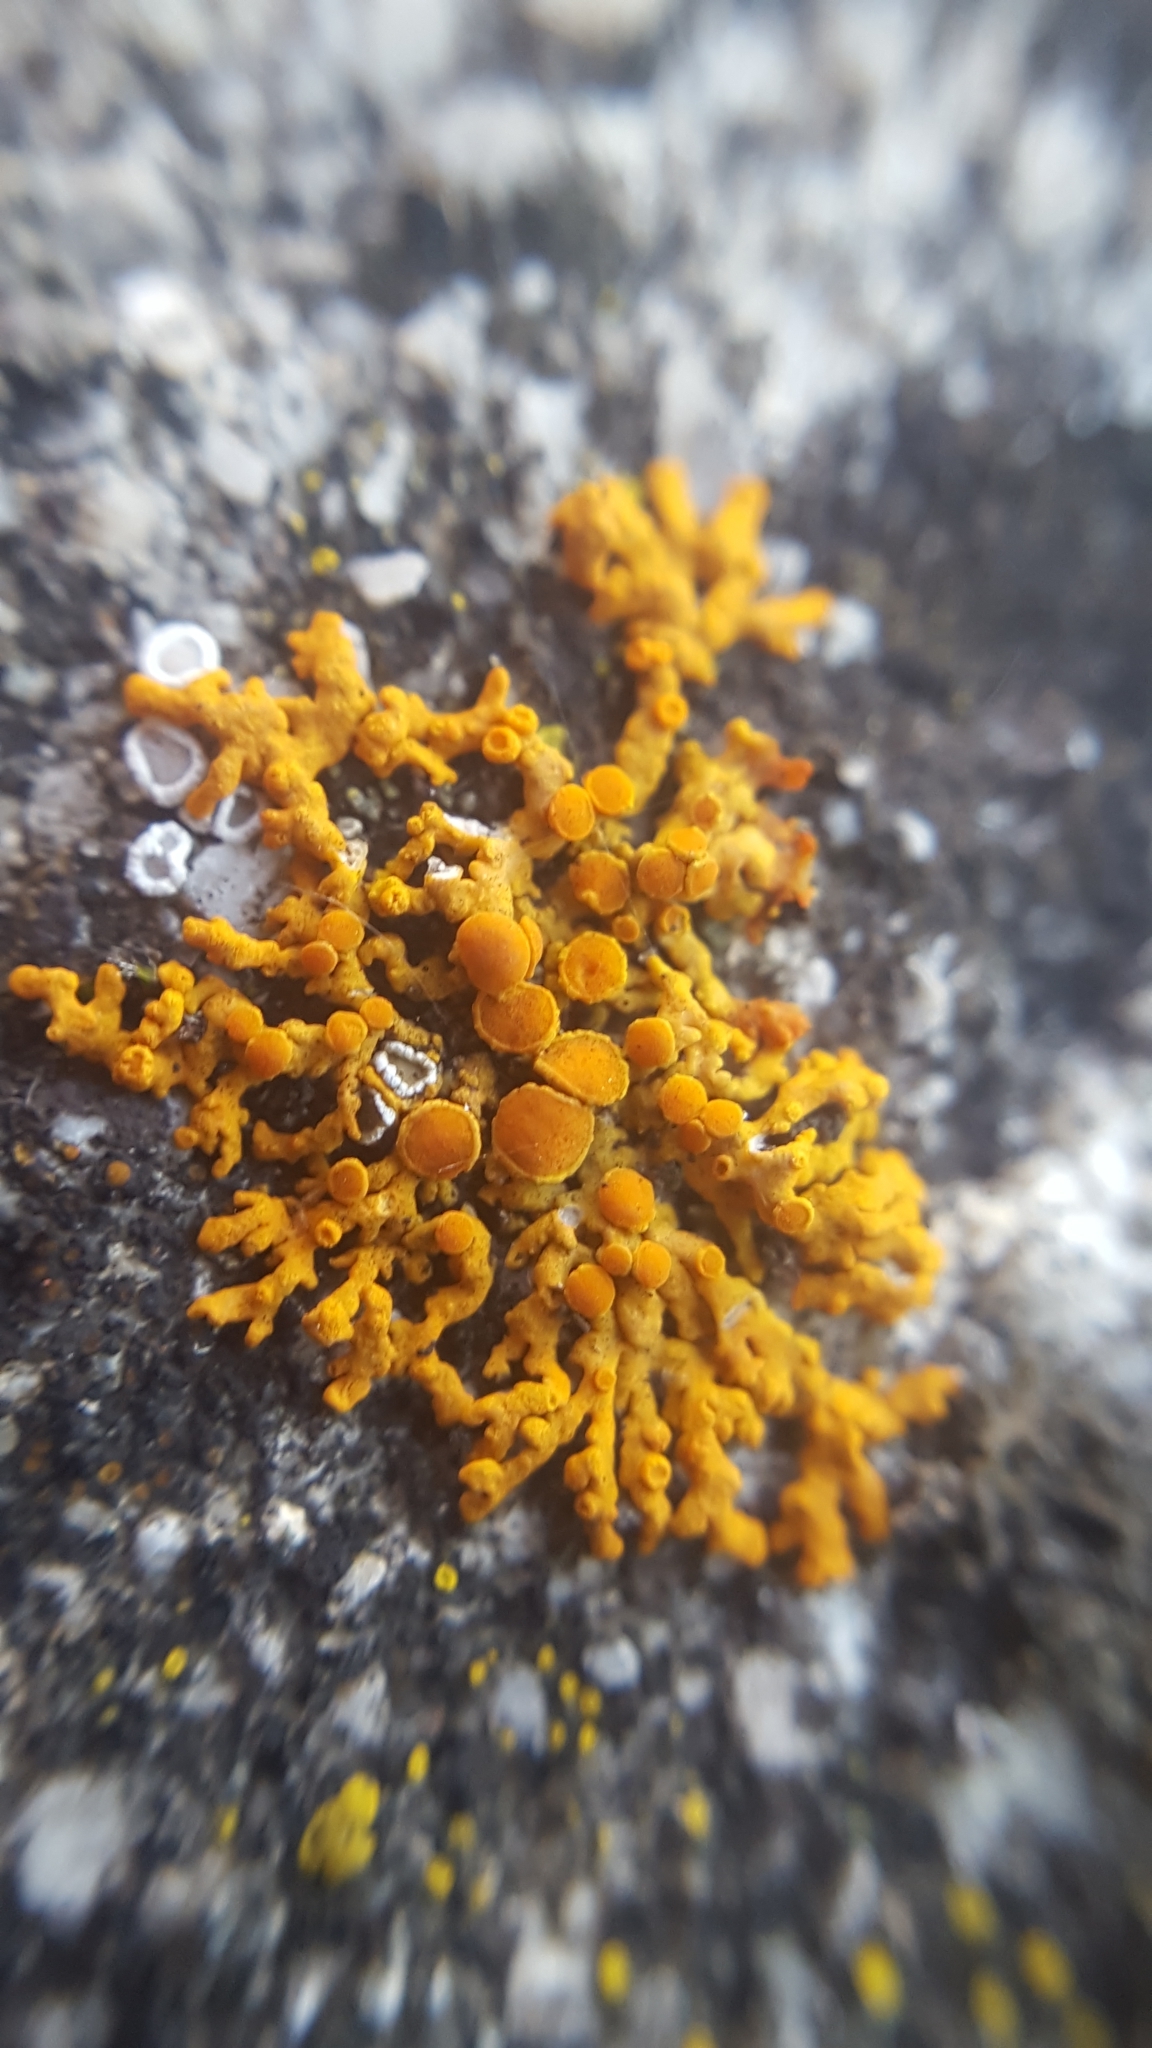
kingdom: Fungi
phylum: Ascomycota
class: Lecanoromycetes
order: Teloschistales
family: Teloschistaceae
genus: Xanthoria
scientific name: Xanthoria elegans
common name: Elegant sunburst lichen
